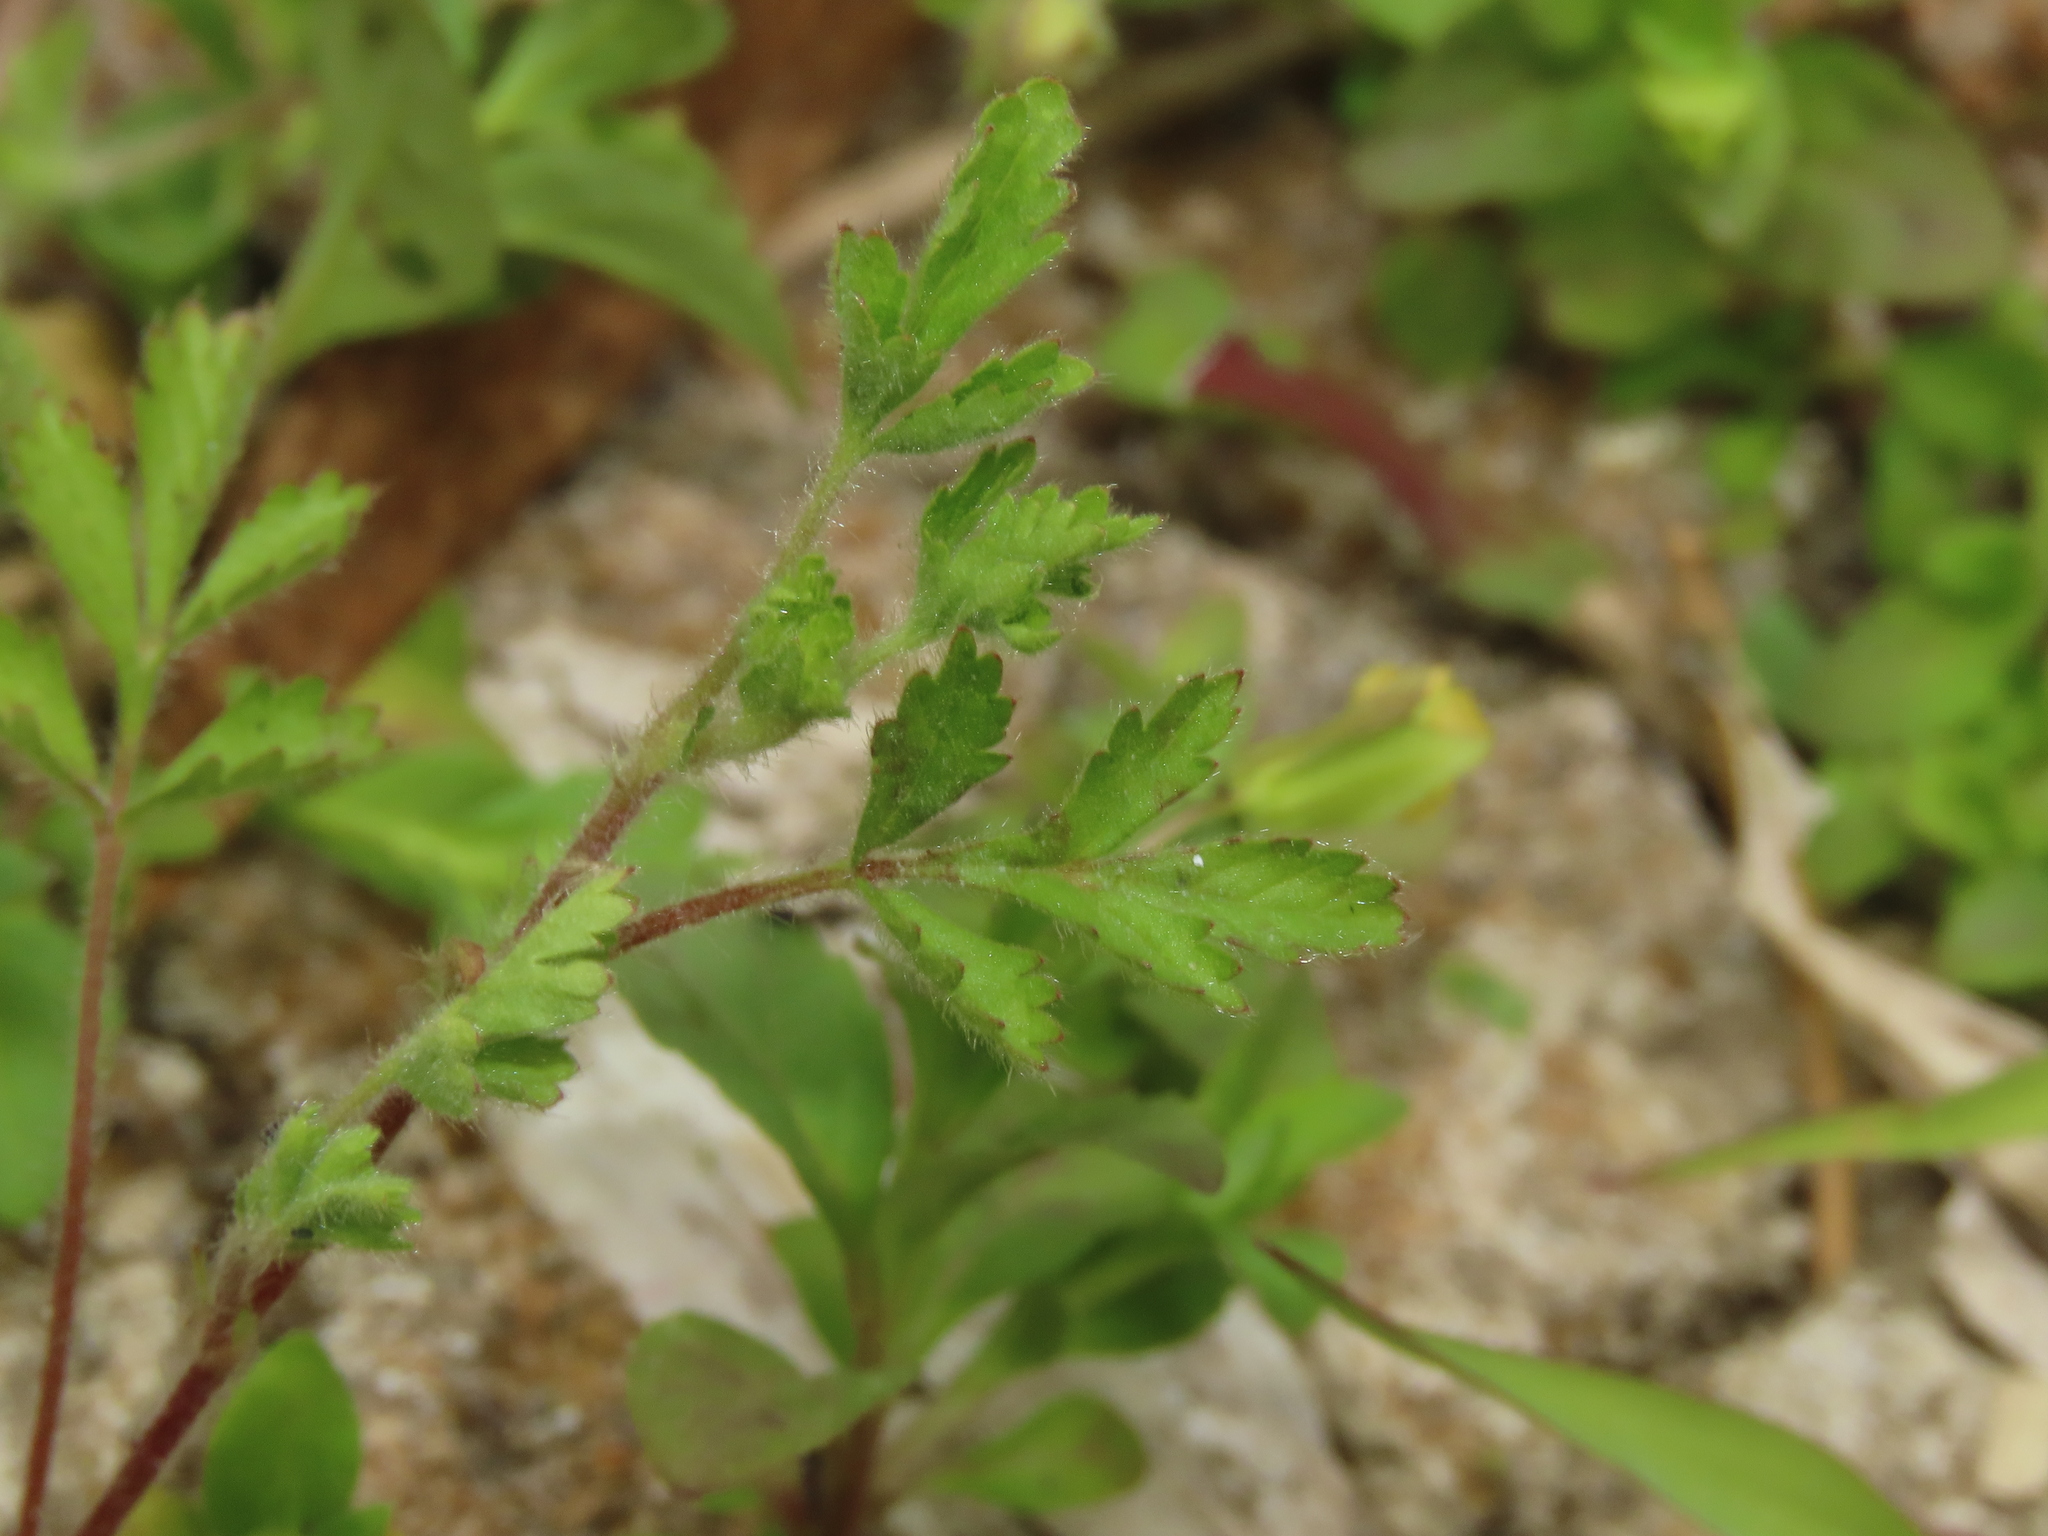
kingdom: Plantae
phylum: Tracheophyta
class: Magnoliopsida
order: Rosales
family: Rosaceae
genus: Potentilla
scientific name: Potentilla heynei
